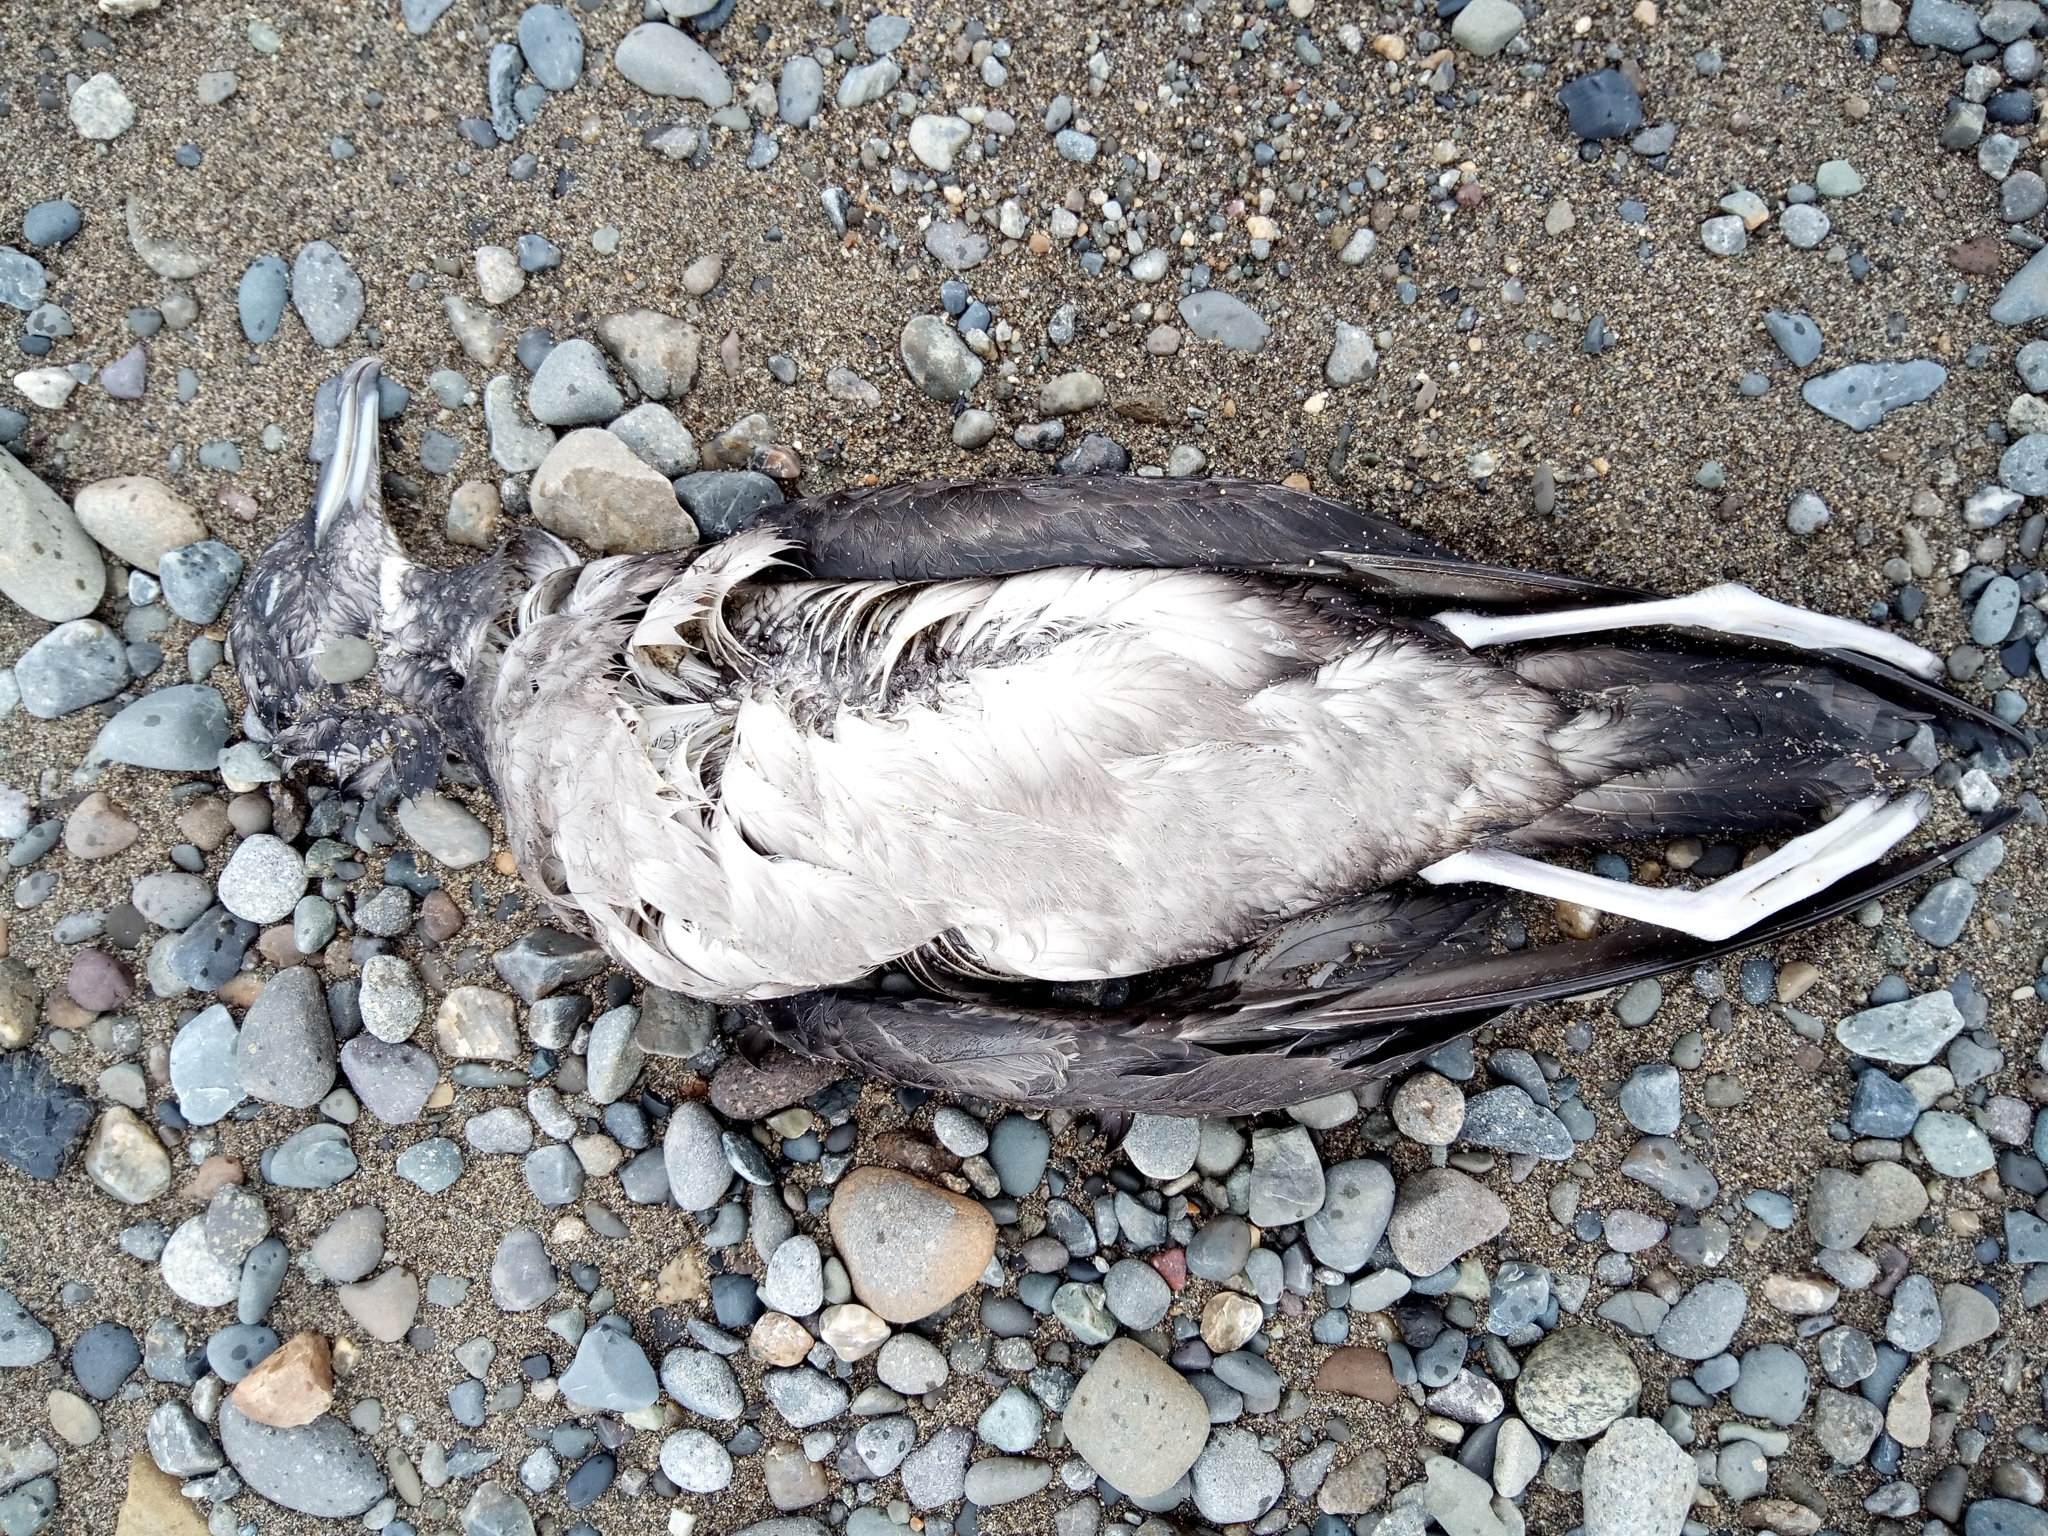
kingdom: Animalia
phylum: Chordata
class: Aves
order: Procellariiformes
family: Procellariidae
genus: Puffinus
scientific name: Puffinus tenuirostris
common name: Short-tailed shearwater
